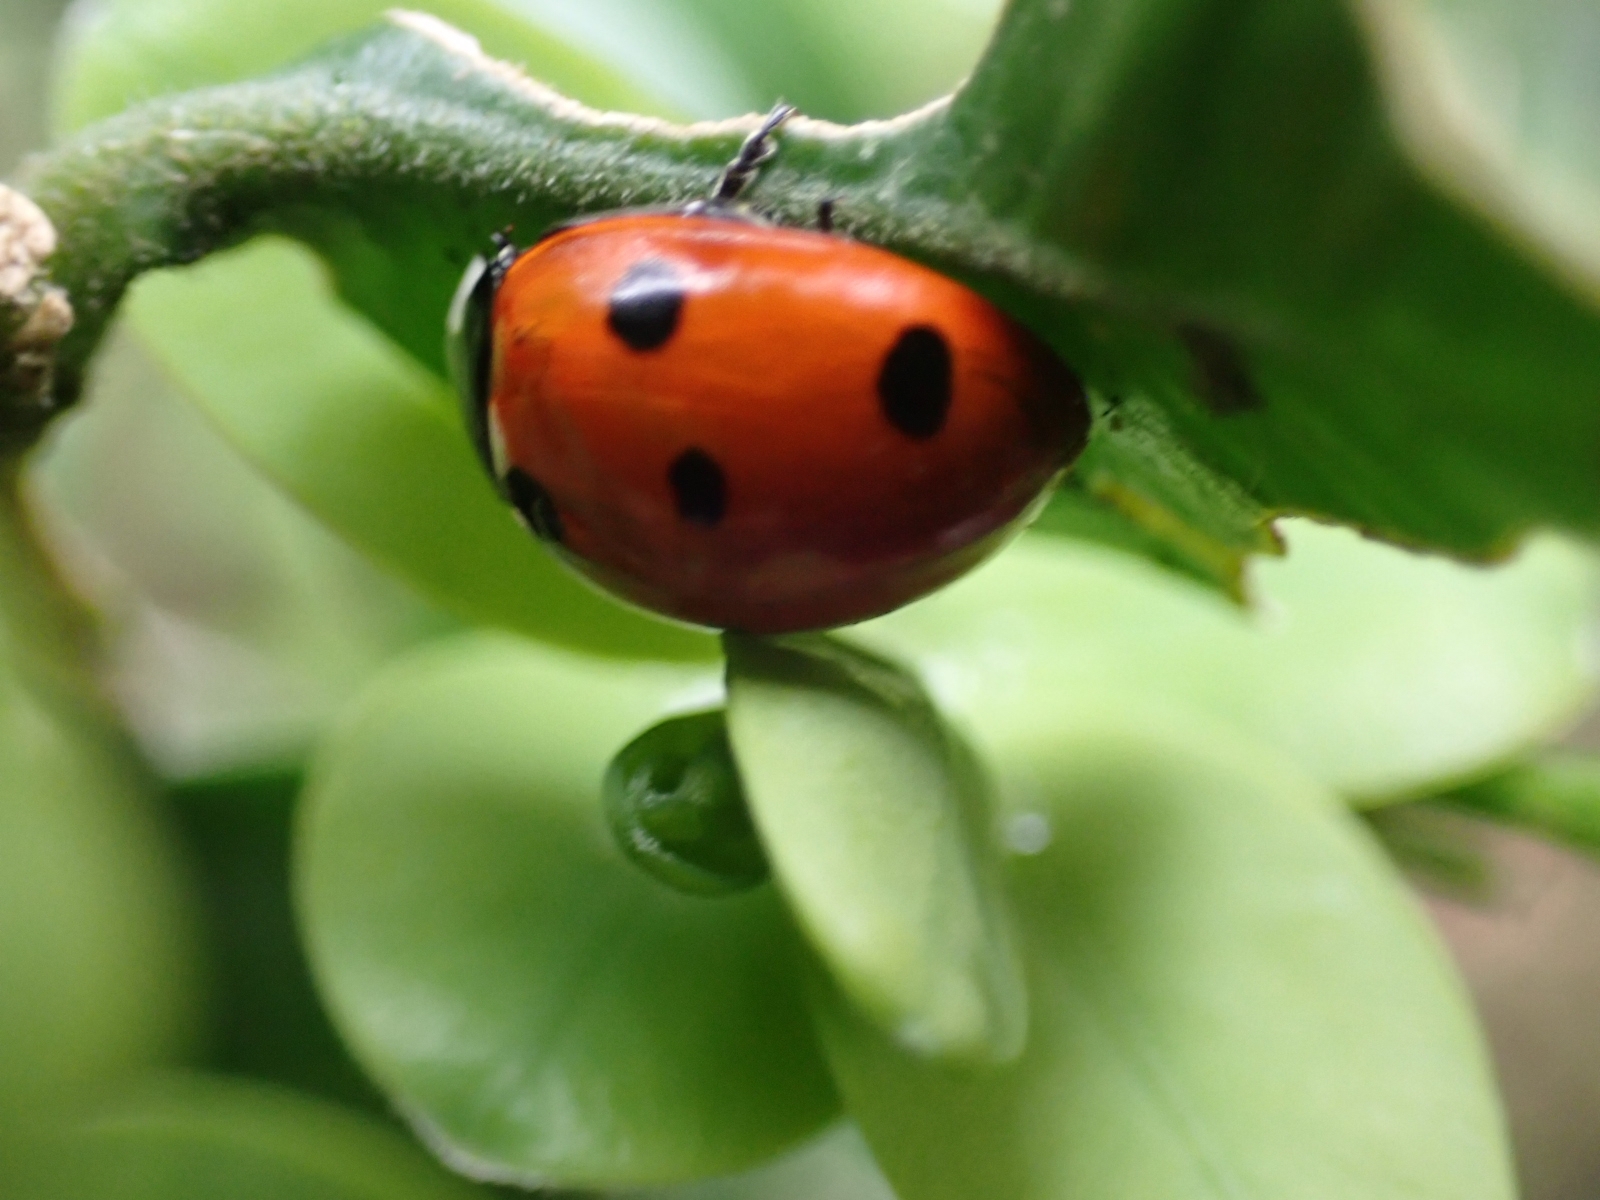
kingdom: Animalia
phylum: Arthropoda
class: Insecta
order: Coleoptera
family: Coccinellidae
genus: Coccinella
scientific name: Coccinella septempunctata
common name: Sevenspotted lady beetle
